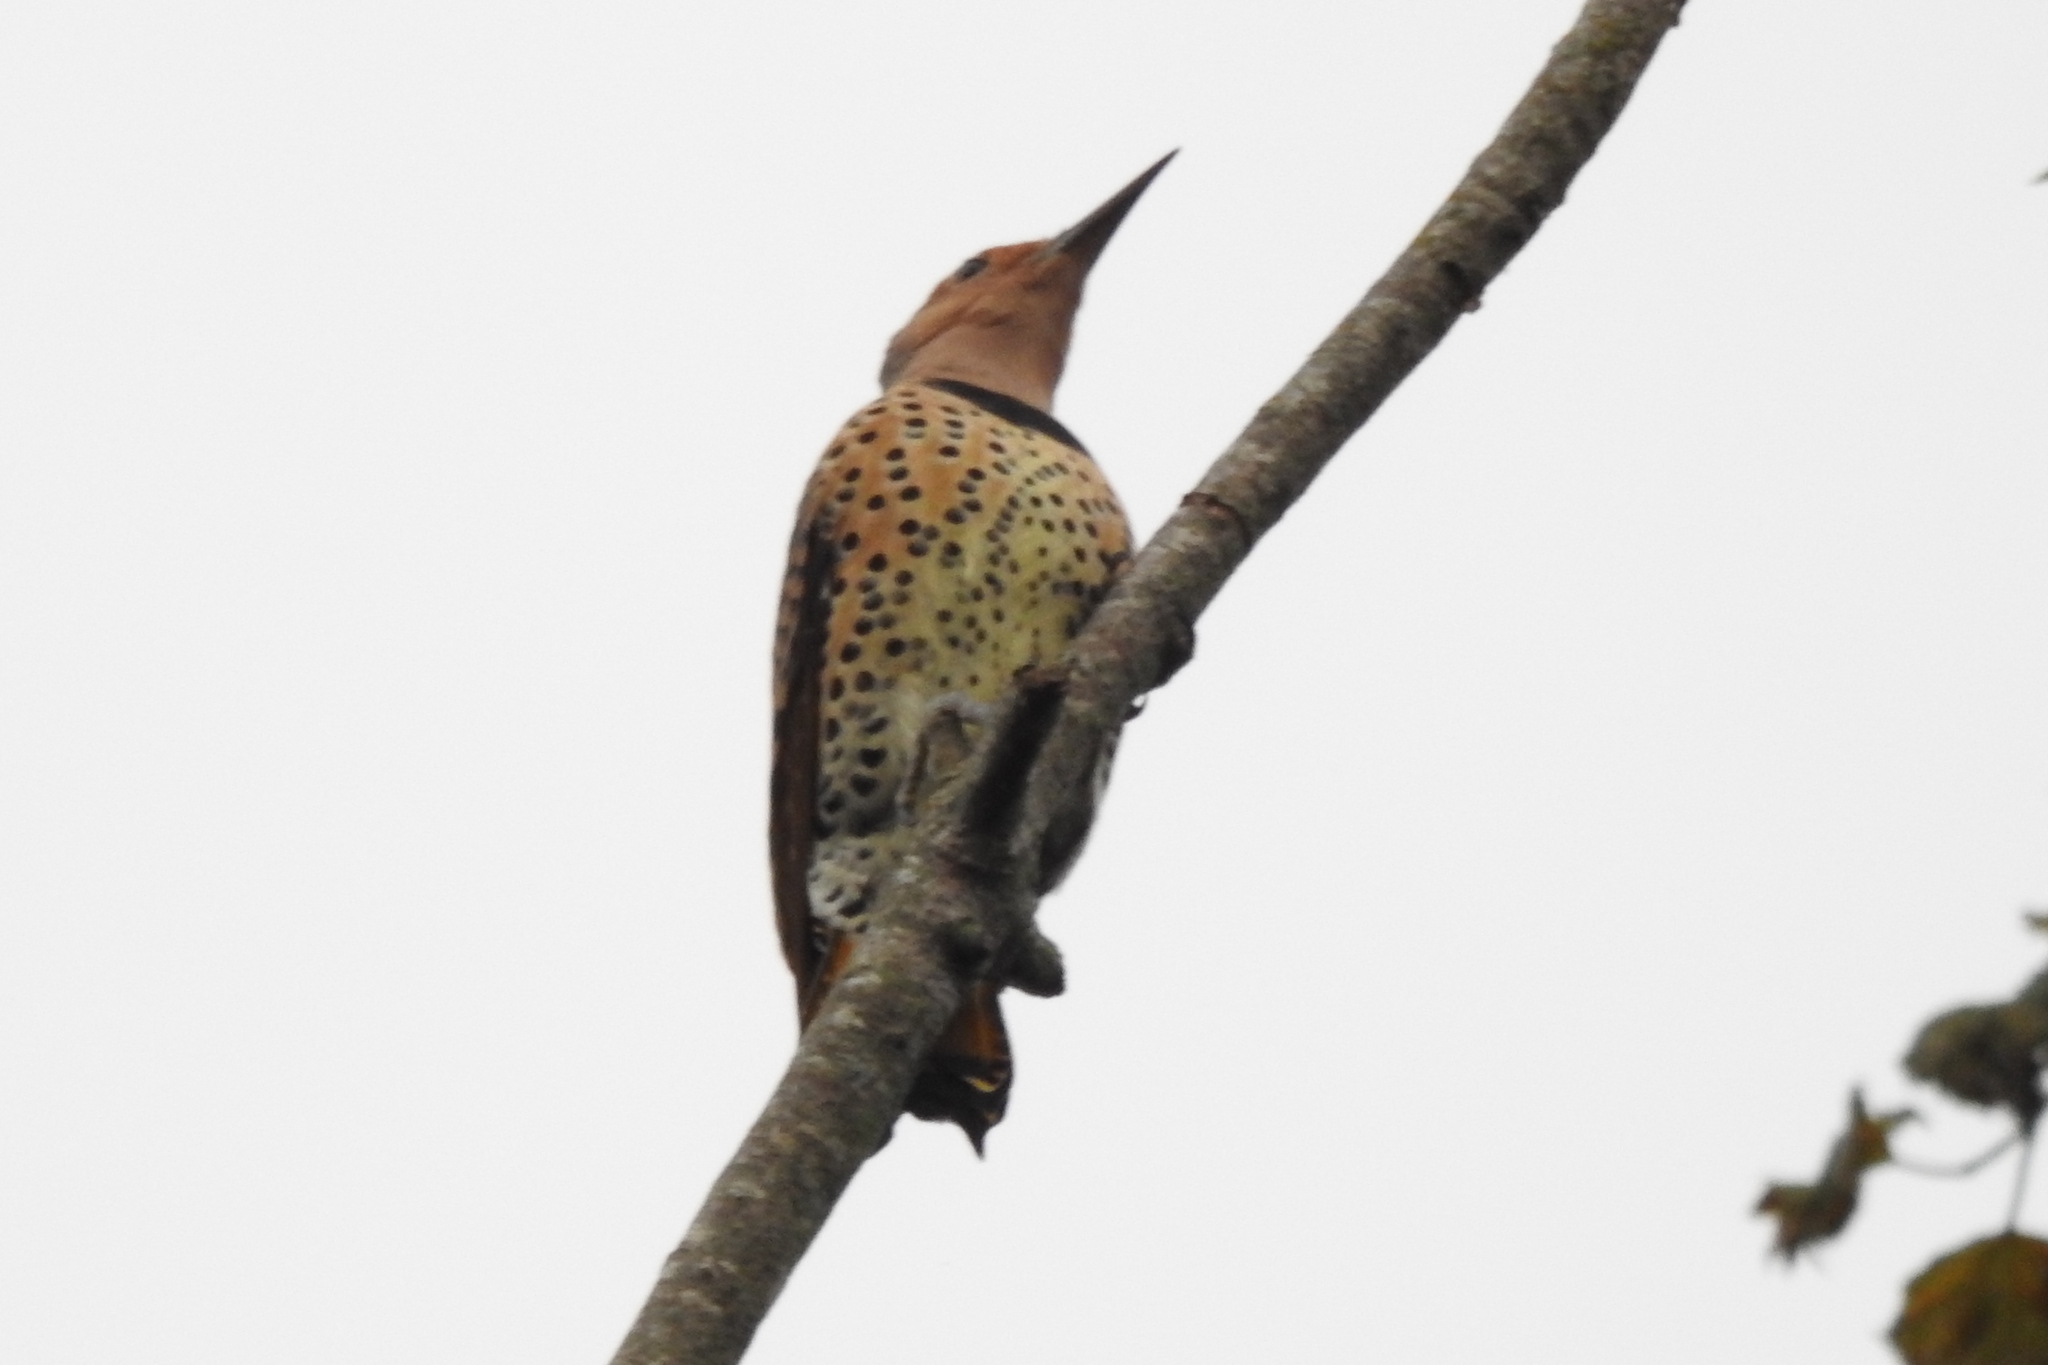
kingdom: Animalia
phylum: Chordata
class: Aves
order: Piciformes
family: Picidae
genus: Colaptes
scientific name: Colaptes auratus
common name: Northern flicker
